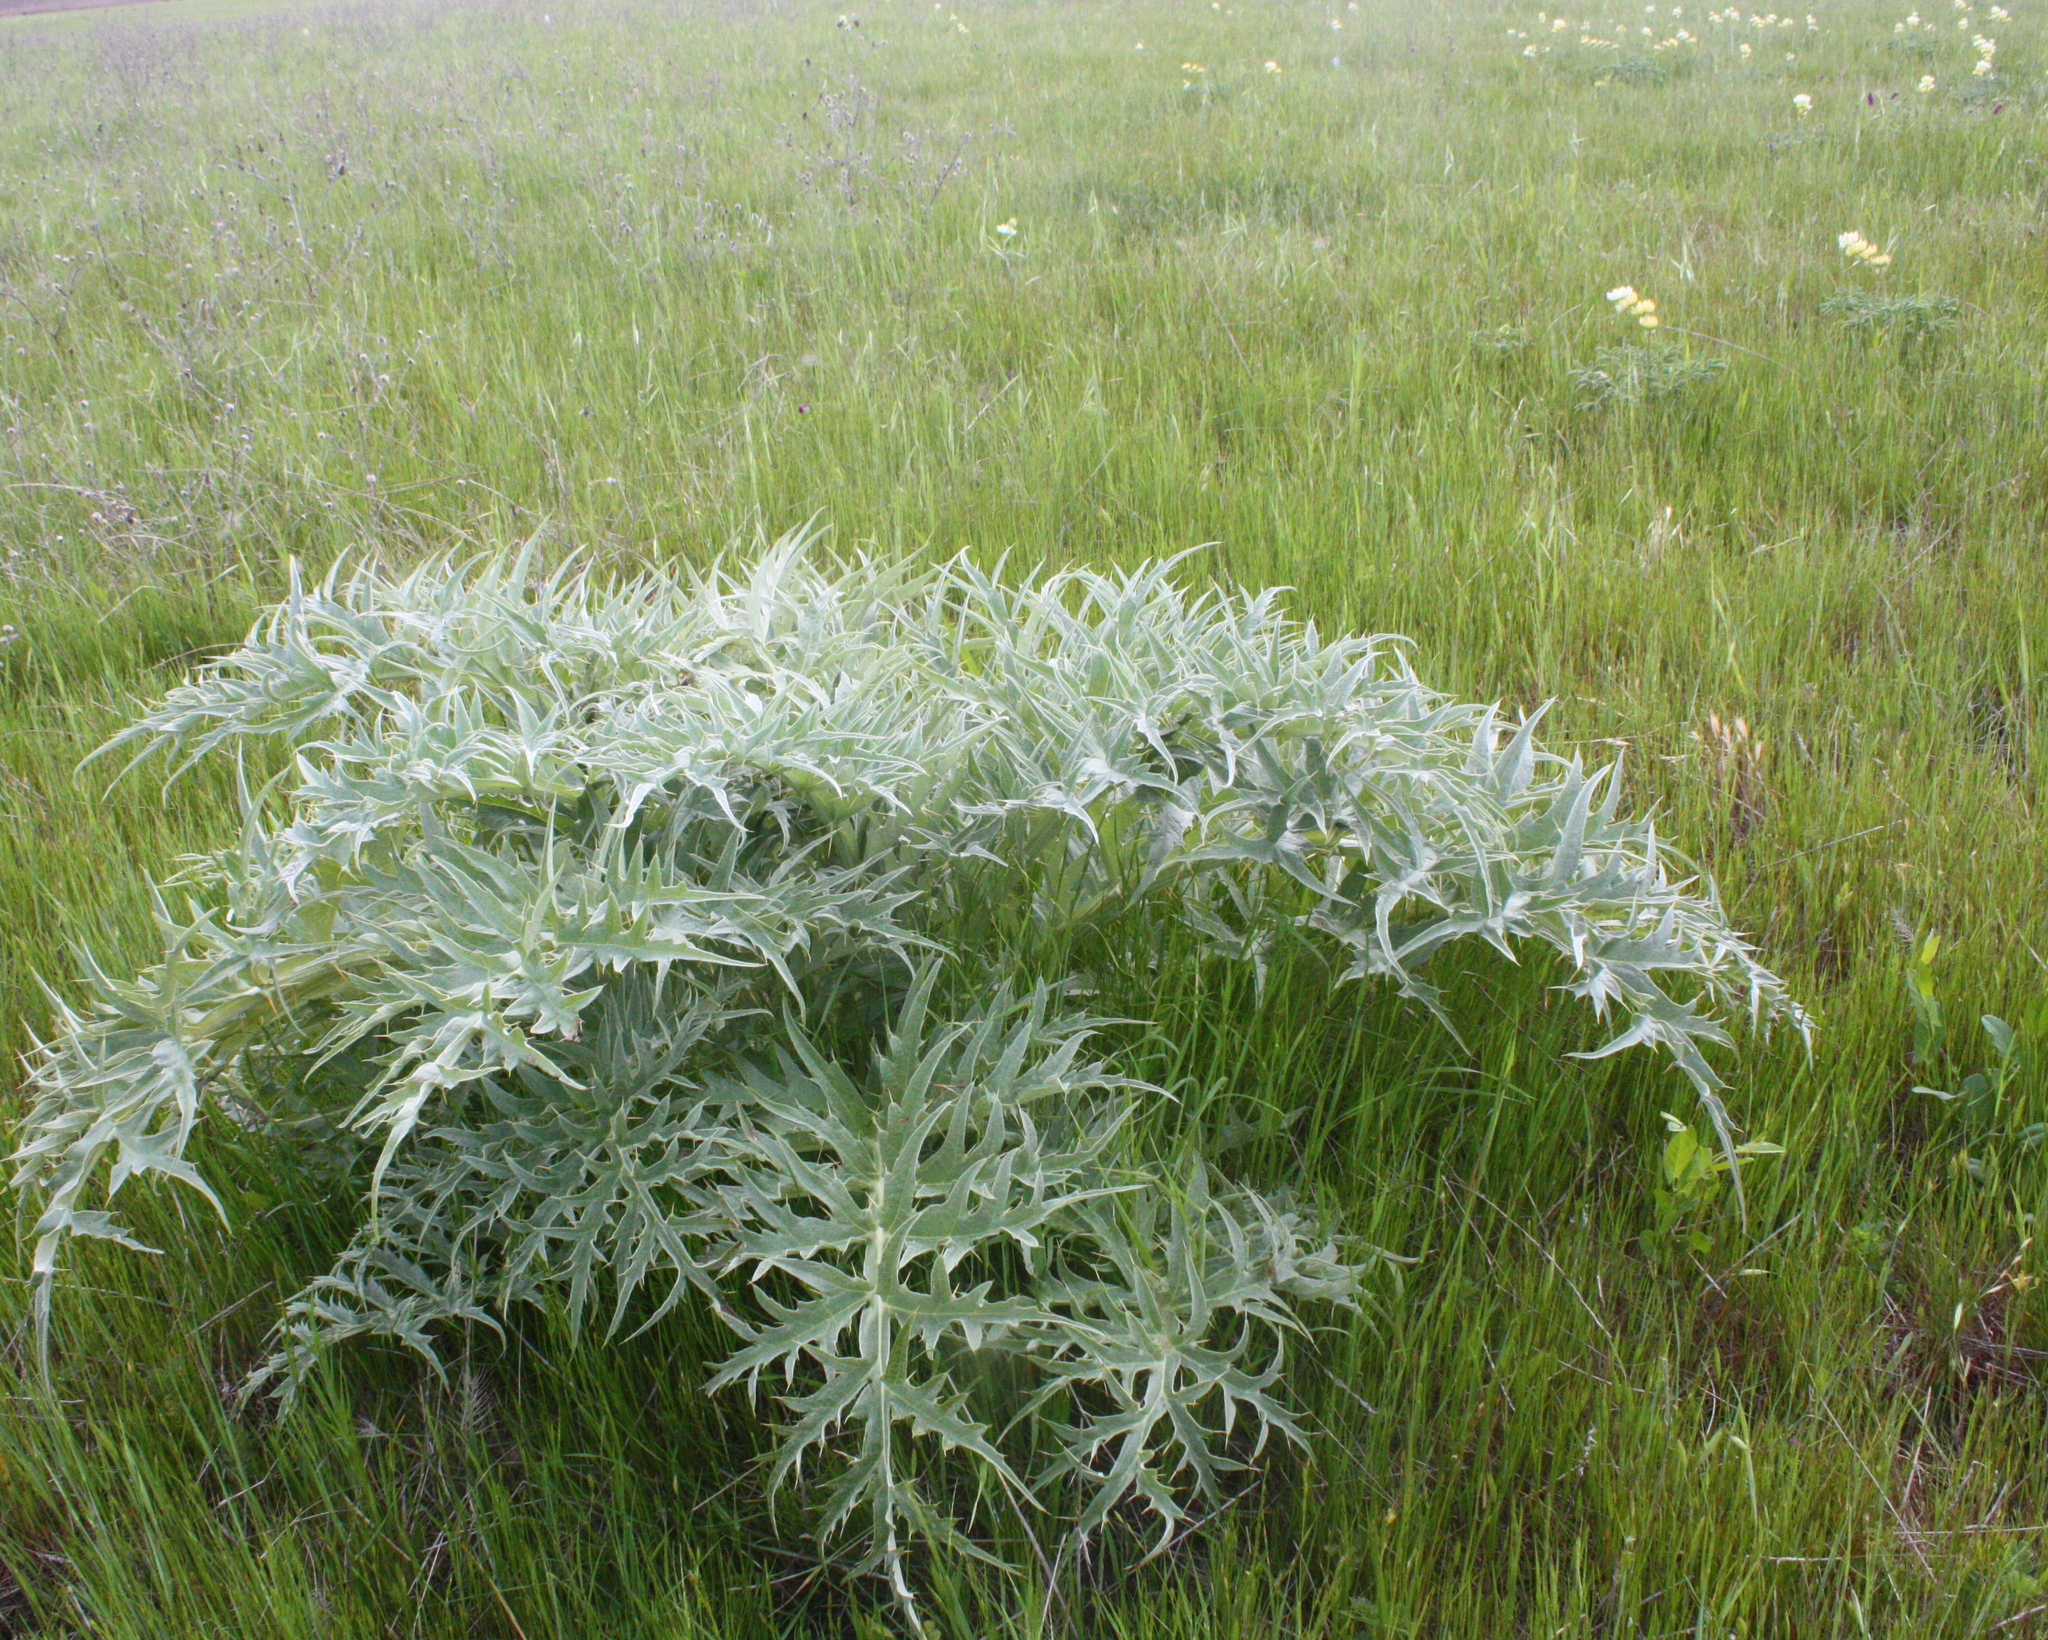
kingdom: Plantae
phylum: Tracheophyta
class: Magnoliopsida
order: Asterales
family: Asteraceae
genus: Cynara
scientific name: Cynara cardunculus
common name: Globe artichoke
